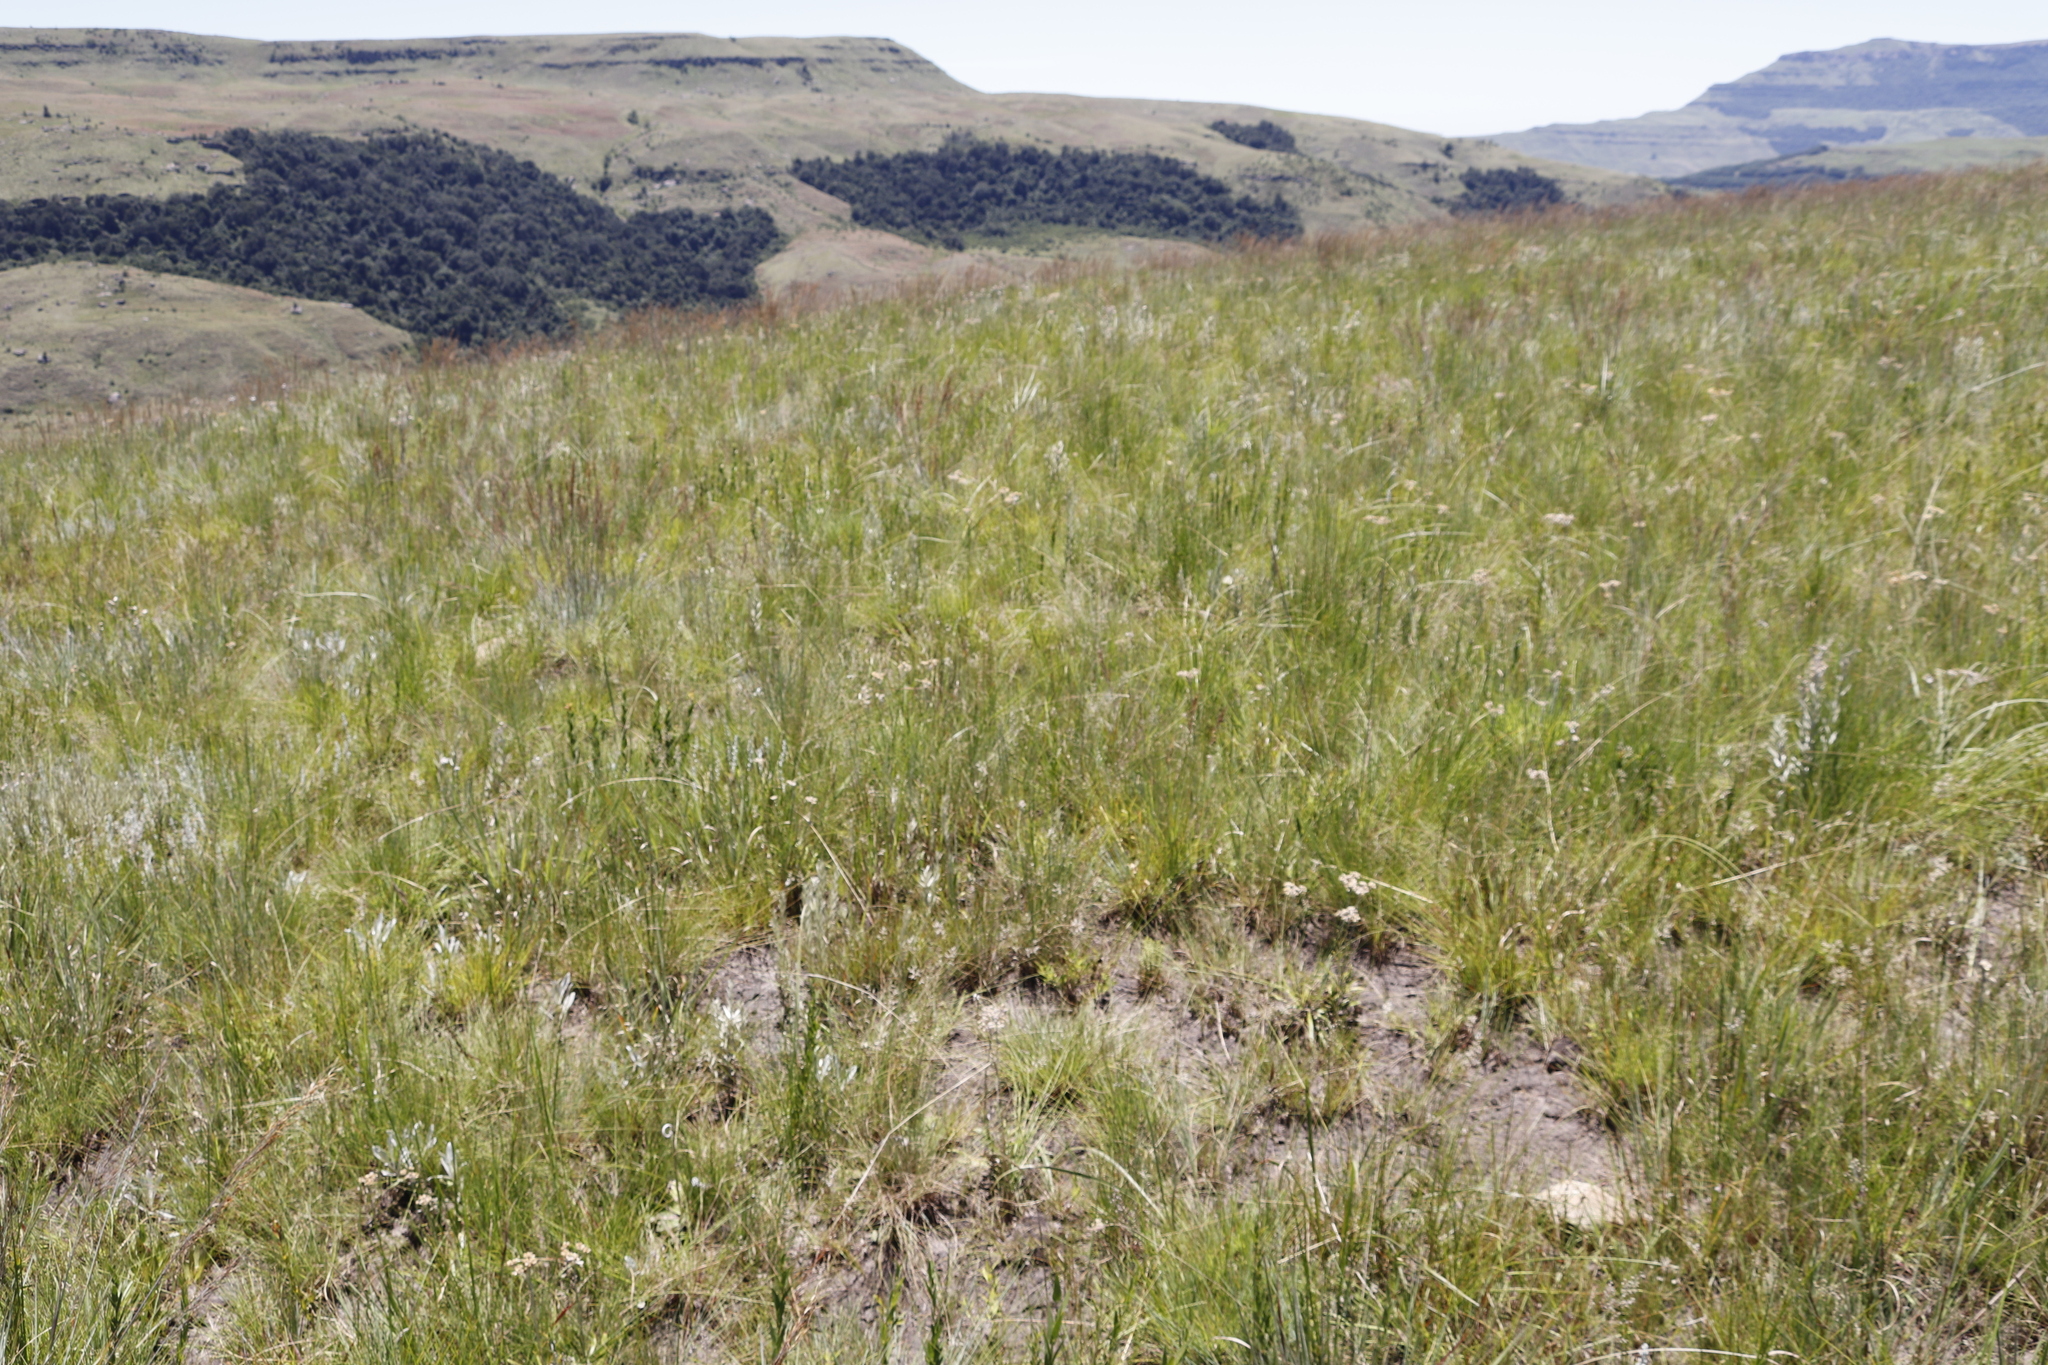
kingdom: Plantae
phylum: Tracheophyta
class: Liliopsida
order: Poales
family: Poaceae
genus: Trichanthecium
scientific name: Trichanthecium natalense
